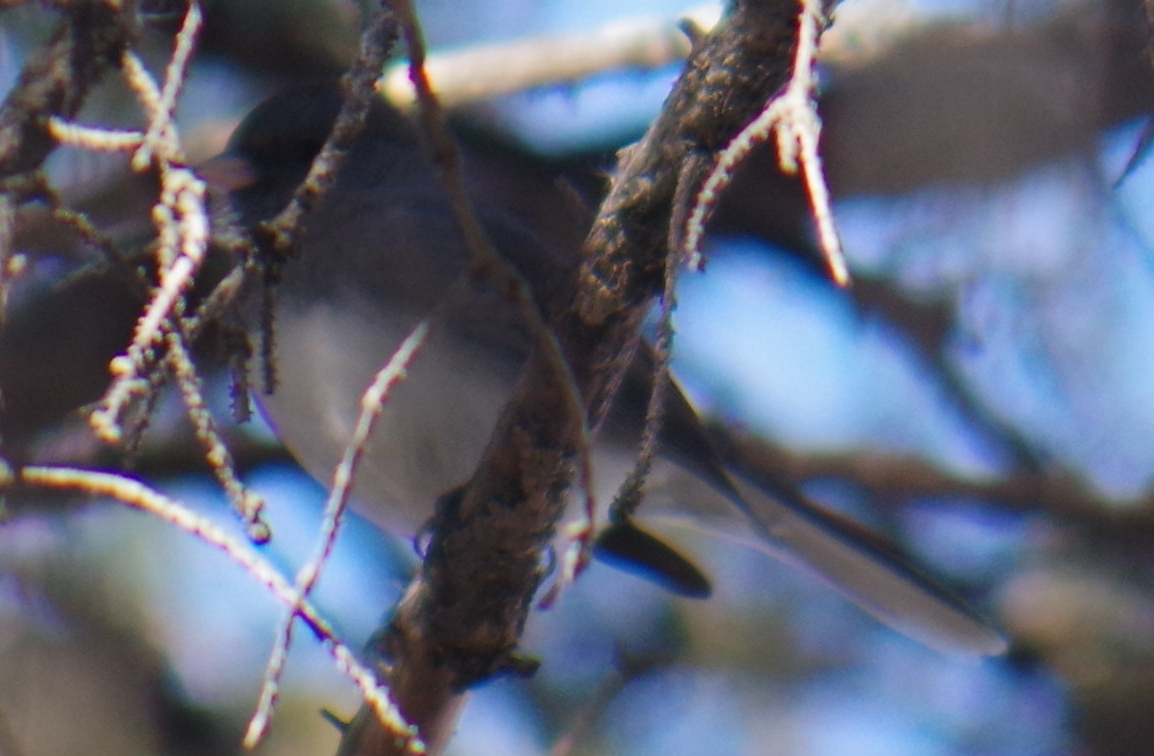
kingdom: Animalia
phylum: Chordata
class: Aves
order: Passeriformes
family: Passerellidae
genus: Junco
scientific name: Junco hyemalis
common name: Dark-eyed junco
